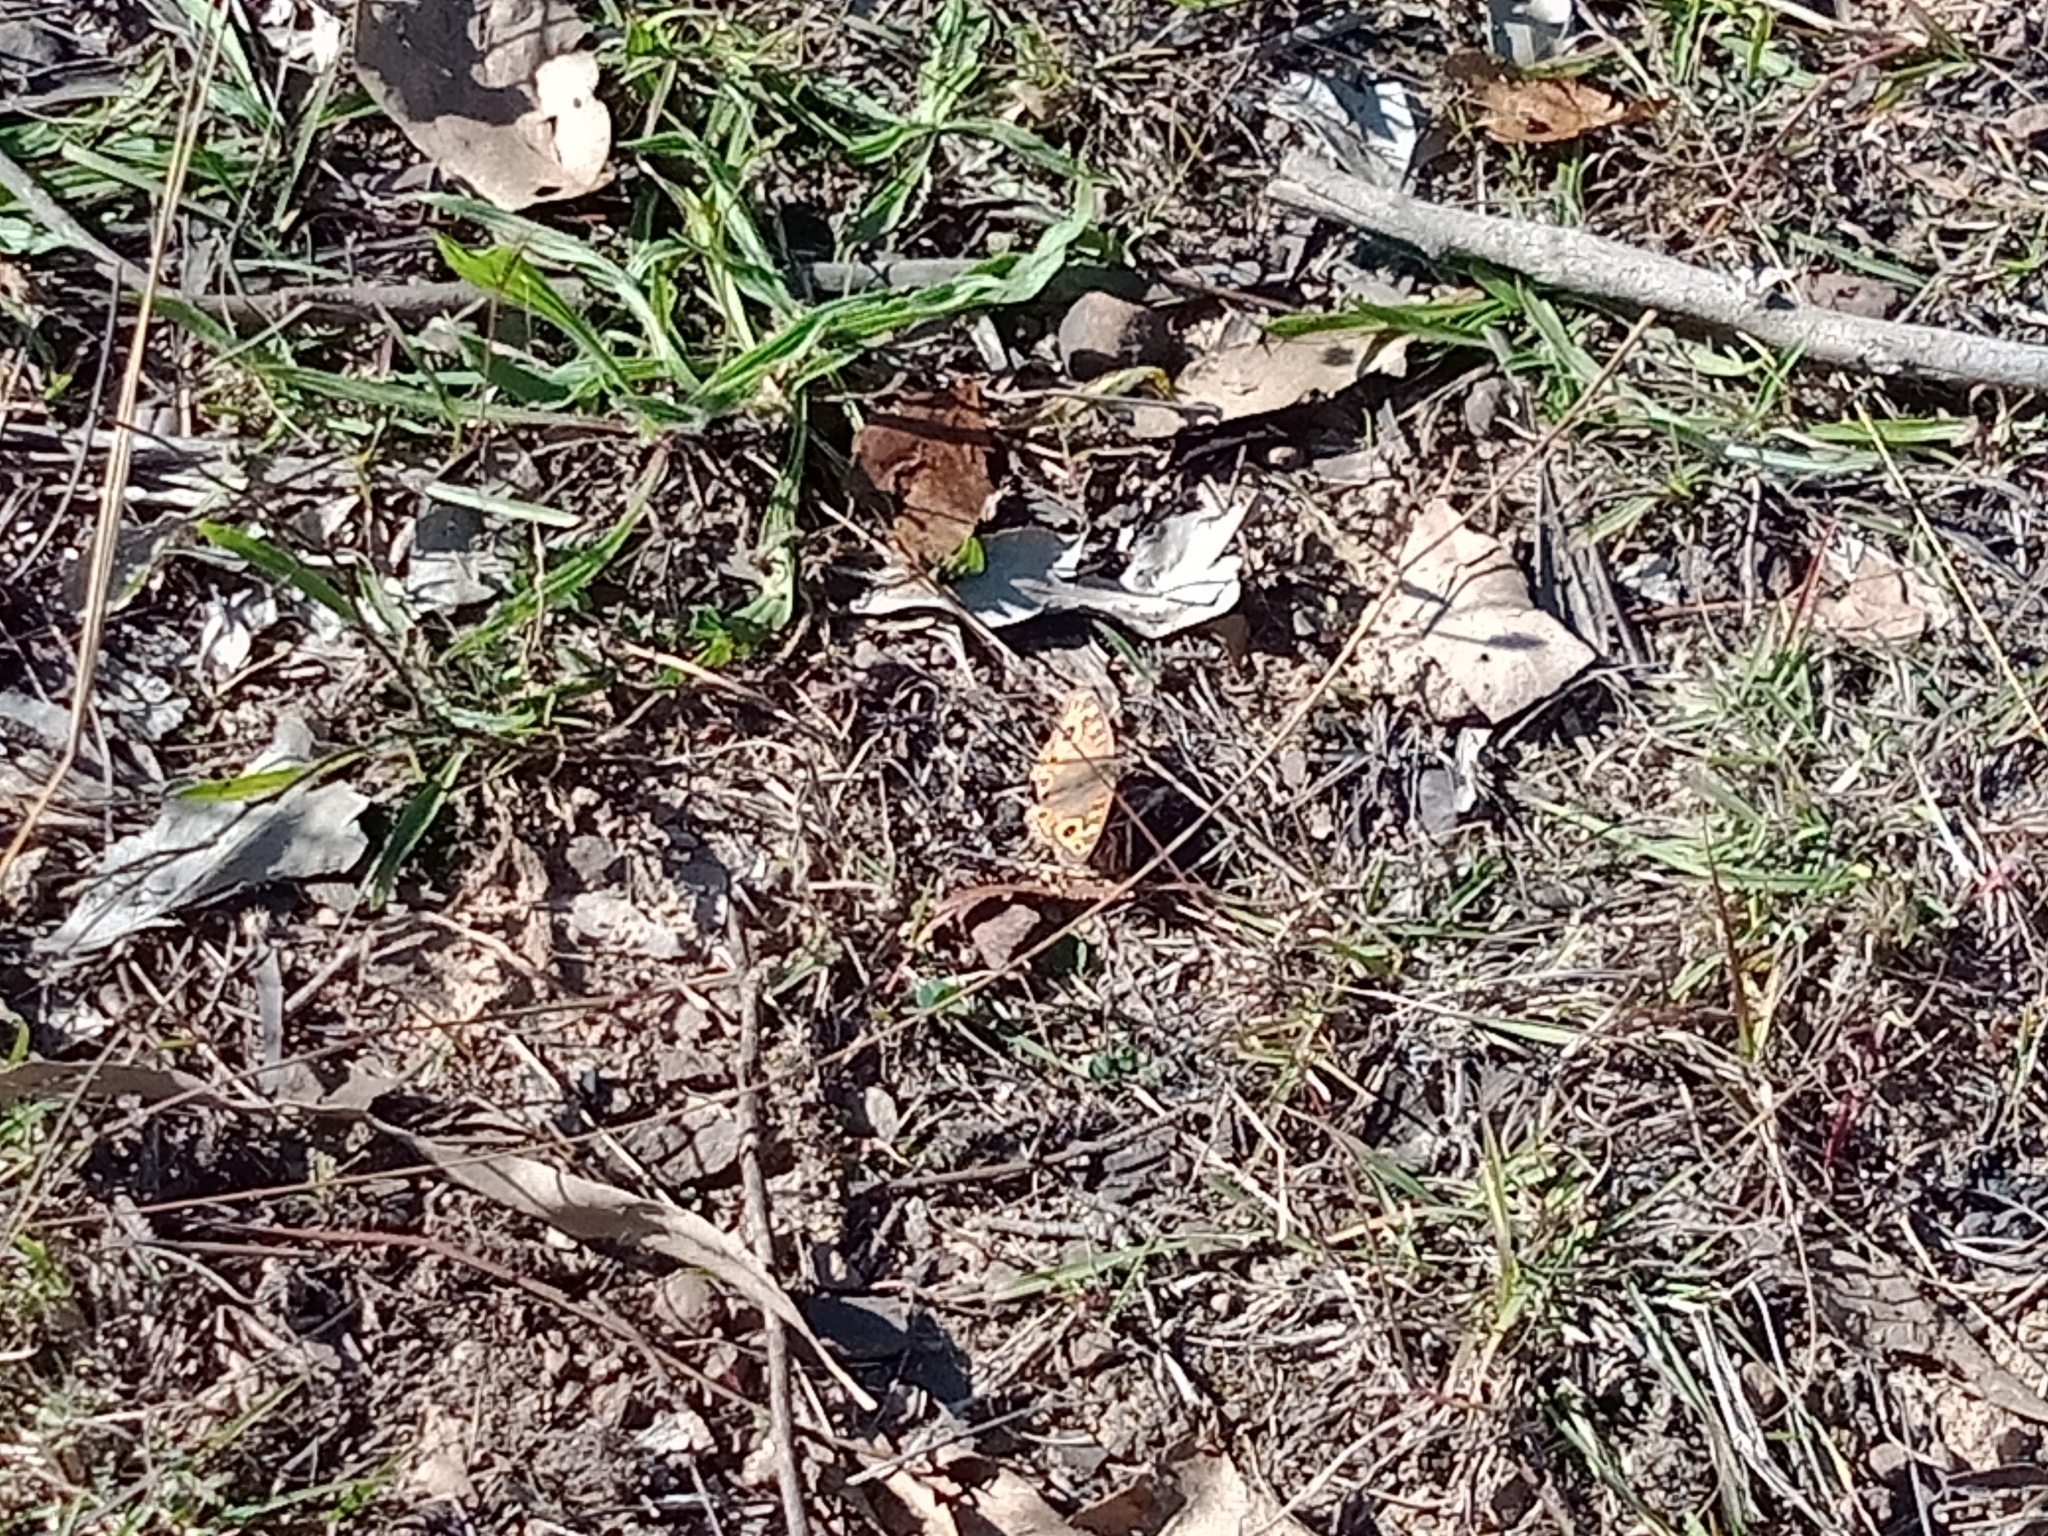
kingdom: Animalia
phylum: Arthropoda
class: Insecta
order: Lepidoptera
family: Nymphalidae
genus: Junonia
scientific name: Junonia villida
